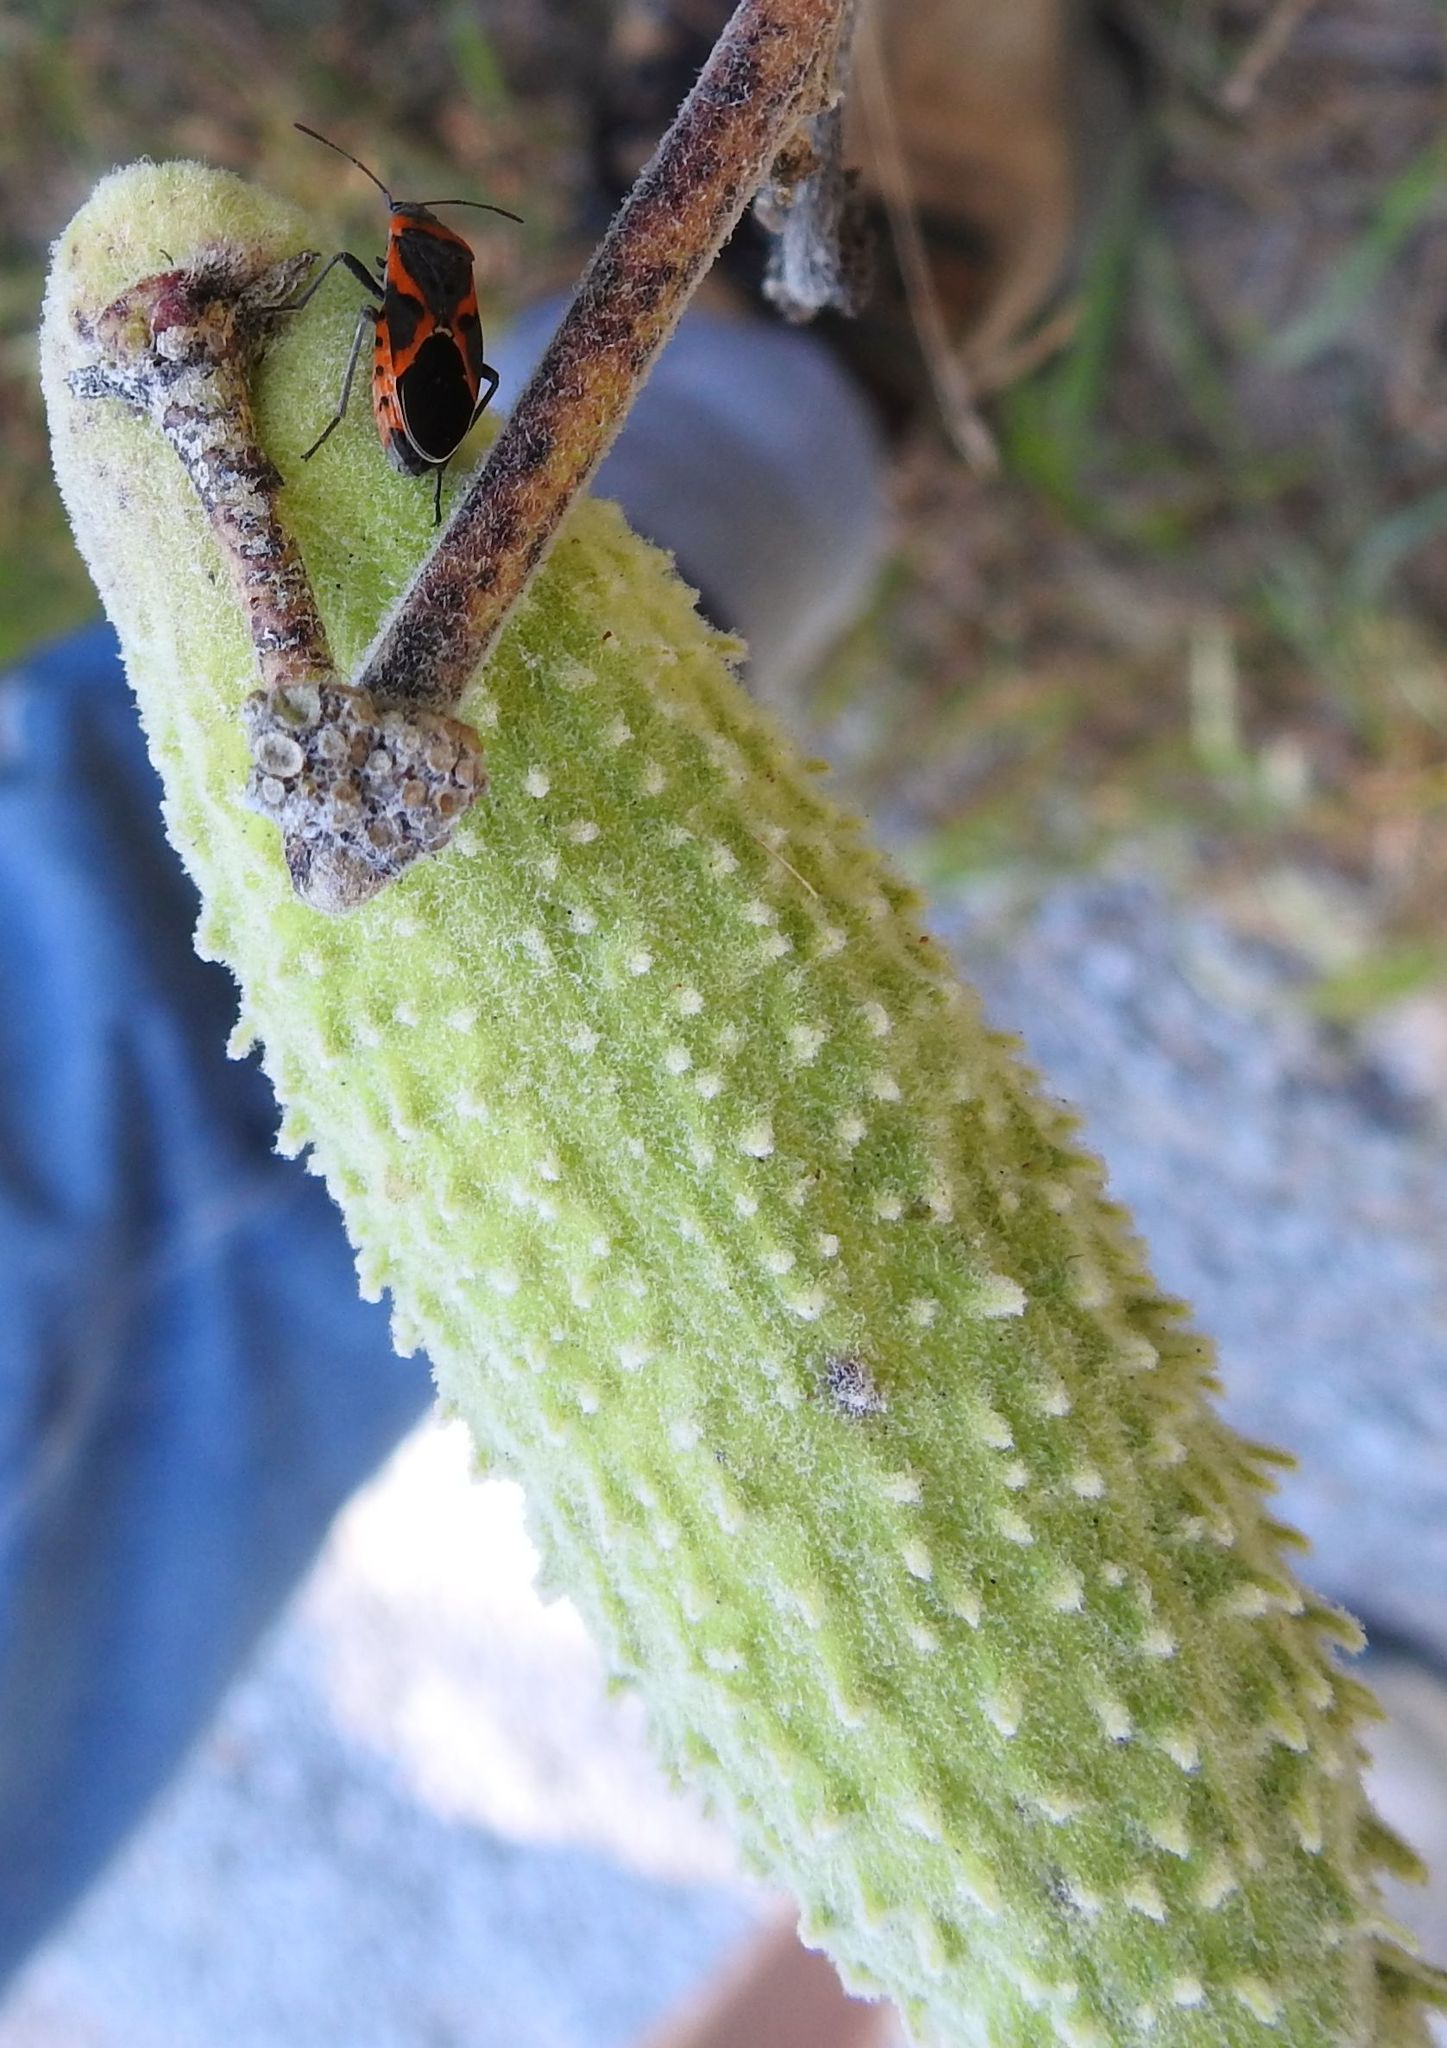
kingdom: Animalia
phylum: Arthropoda
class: Insecta
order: Hemiptera
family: Lygaeidae
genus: Lygaeus
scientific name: Lygaeus kalmii
